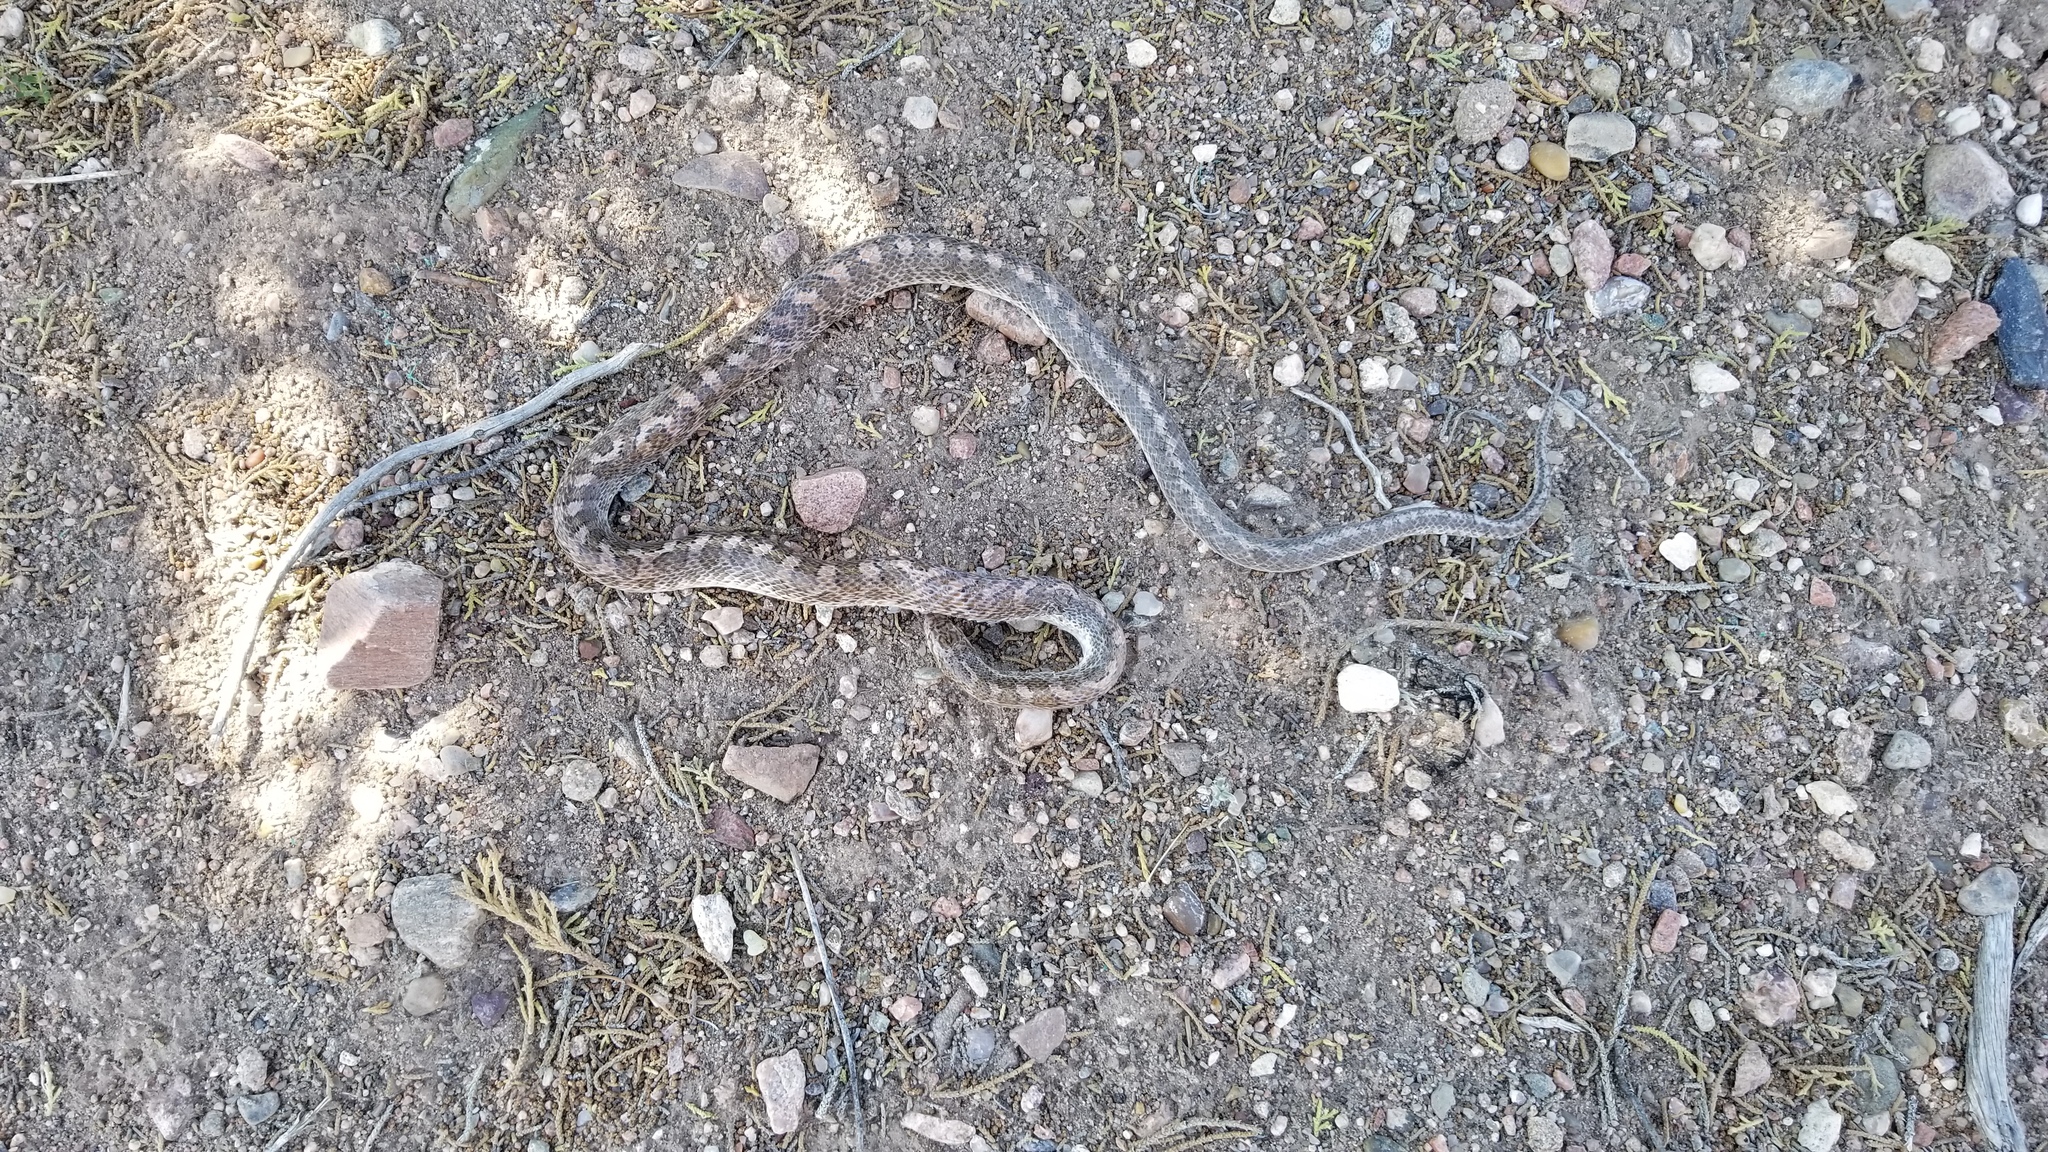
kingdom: Animalia
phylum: Chordata
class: Squamata
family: Colubridae
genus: Arizona
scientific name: Arizona elegans
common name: Glossy snake
